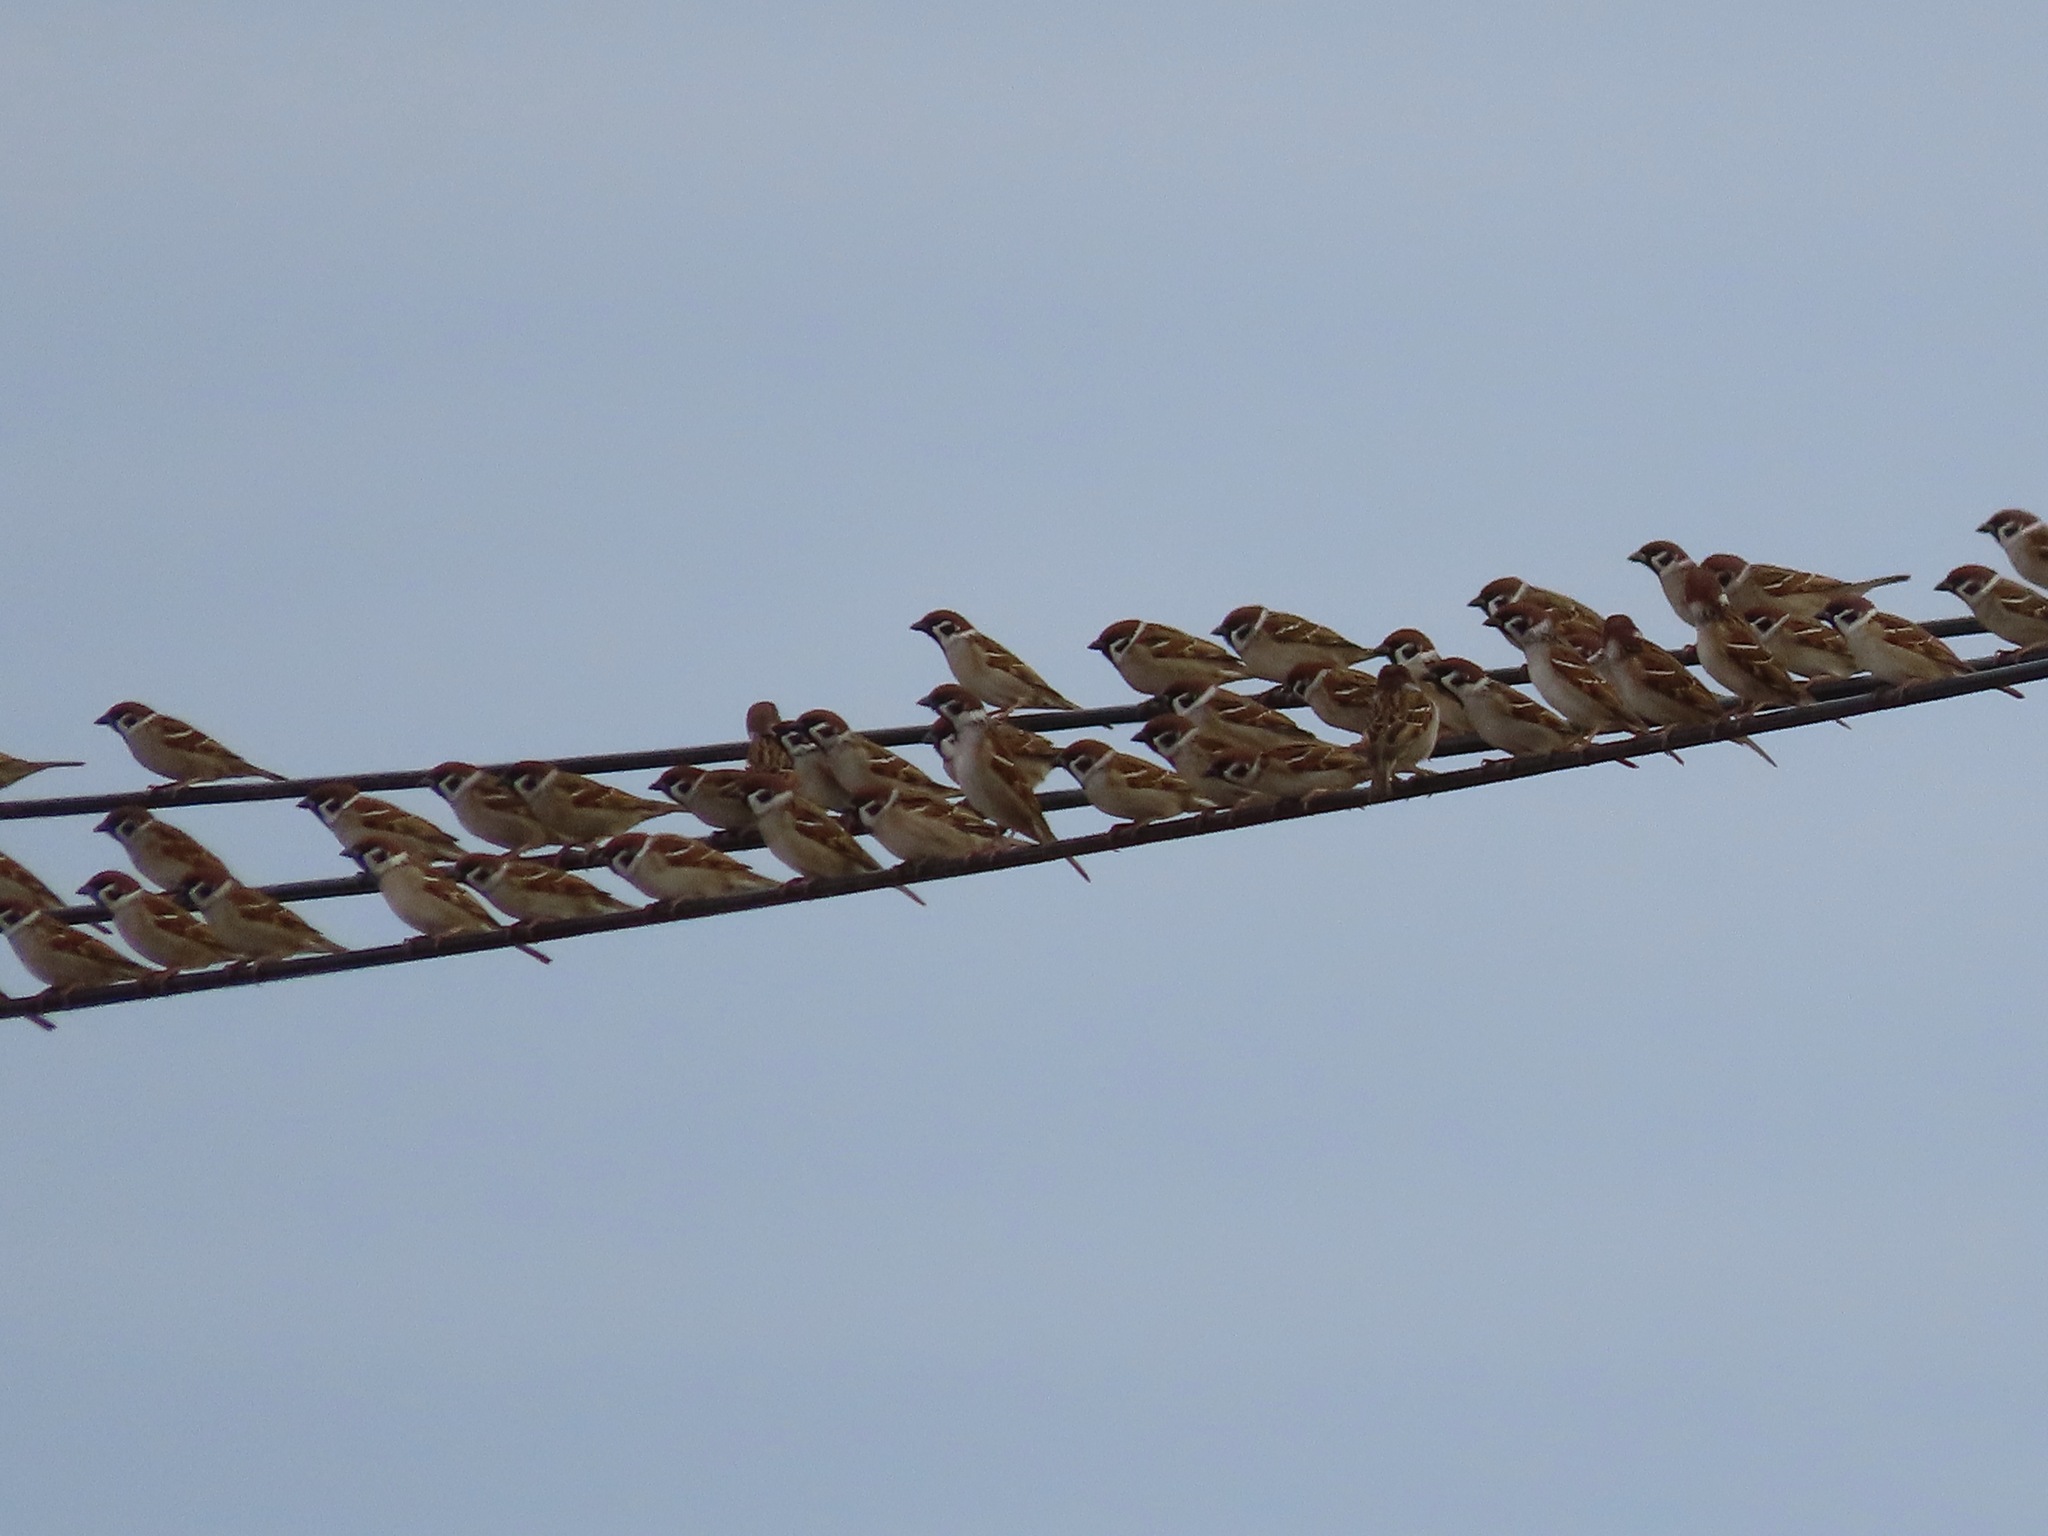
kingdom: Animalia
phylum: Chordata
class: Aves
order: Passeriformes
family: Passeridae
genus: Passer
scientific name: Passer montanus
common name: Eurasian tree sparrow
